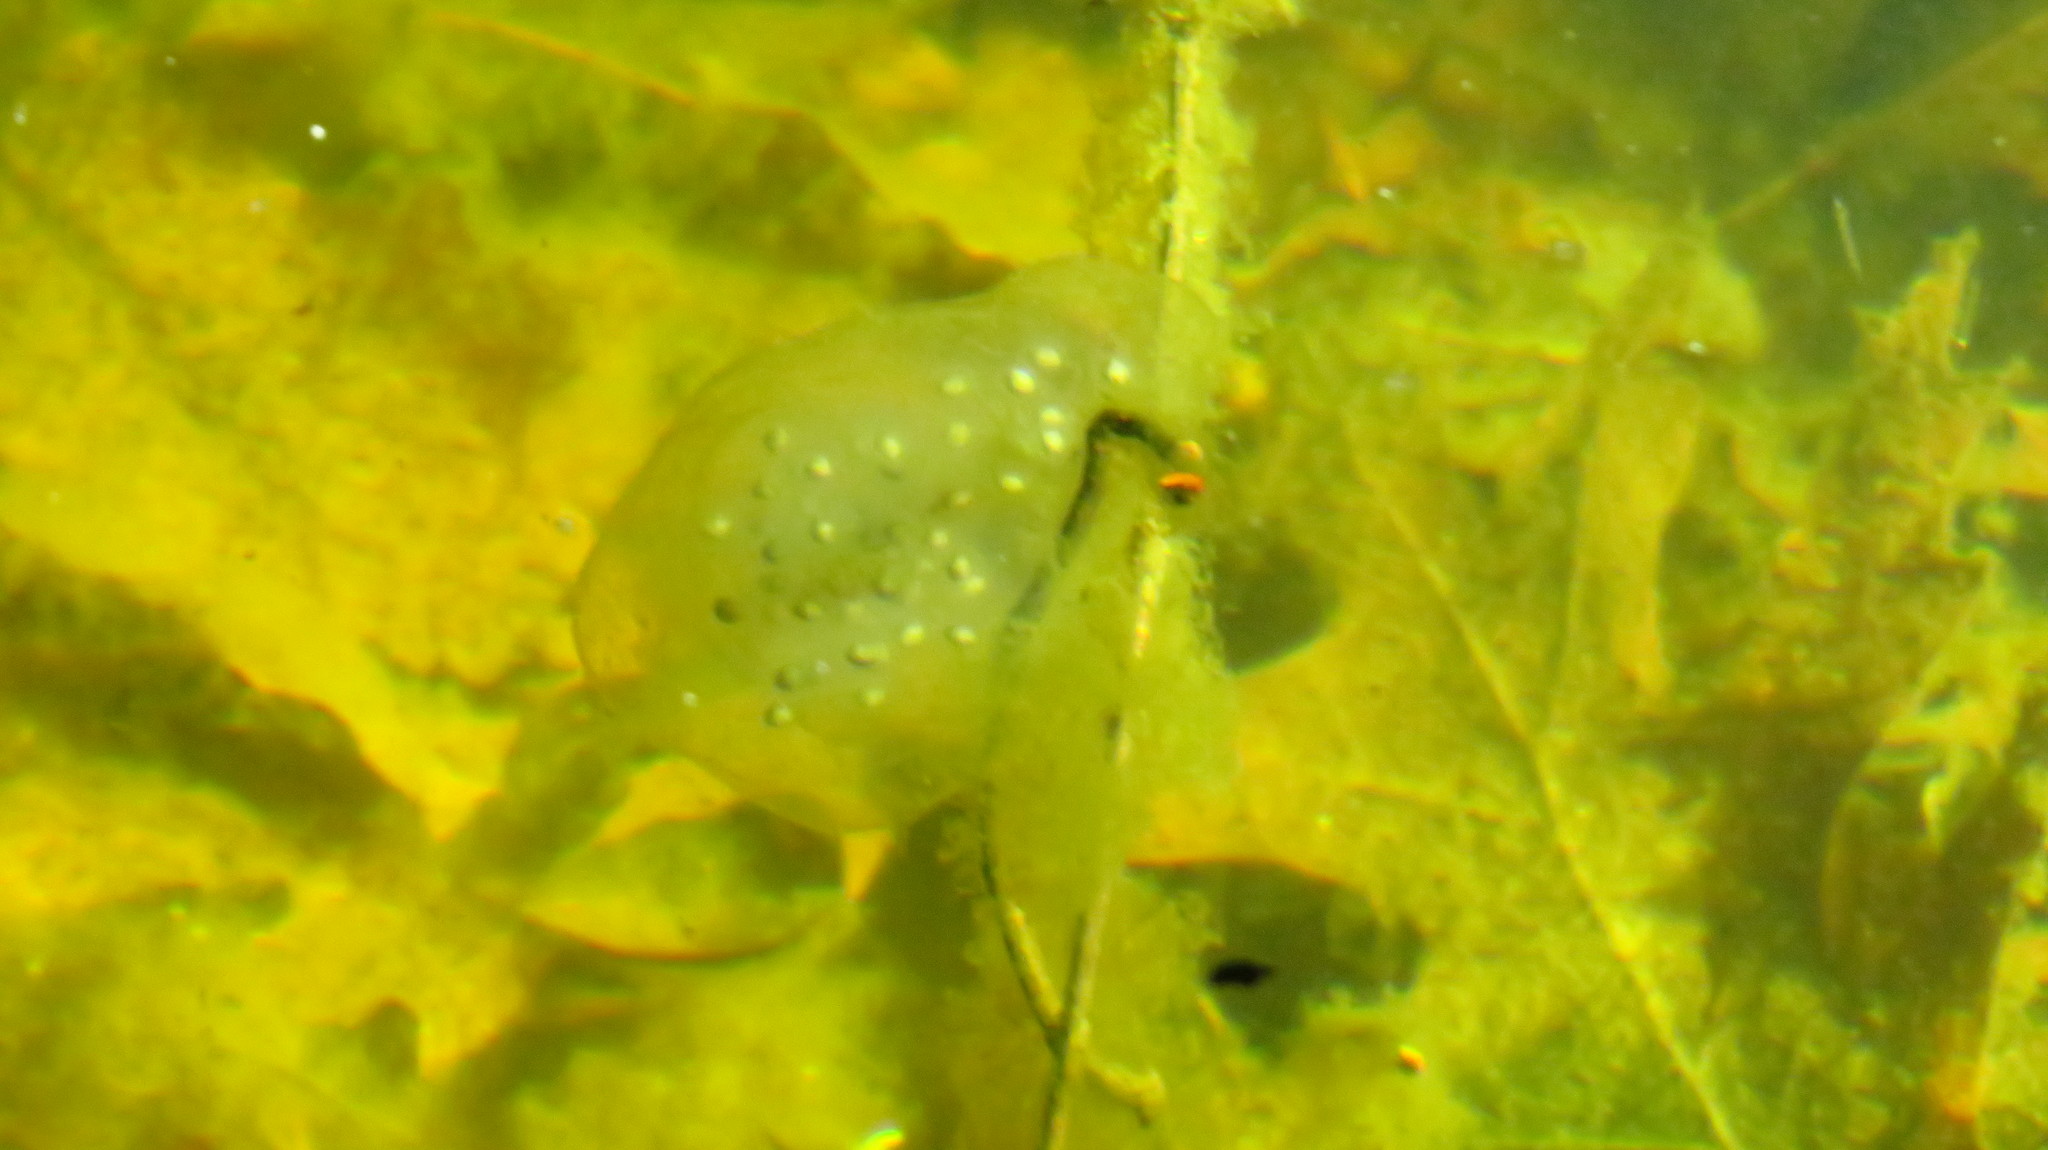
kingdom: Animalia
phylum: Chordata
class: Amphibia
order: Caudata
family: Ambystomatidae
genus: Ambystoma
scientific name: Ambystoma maculatum
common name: Spotted salamander
